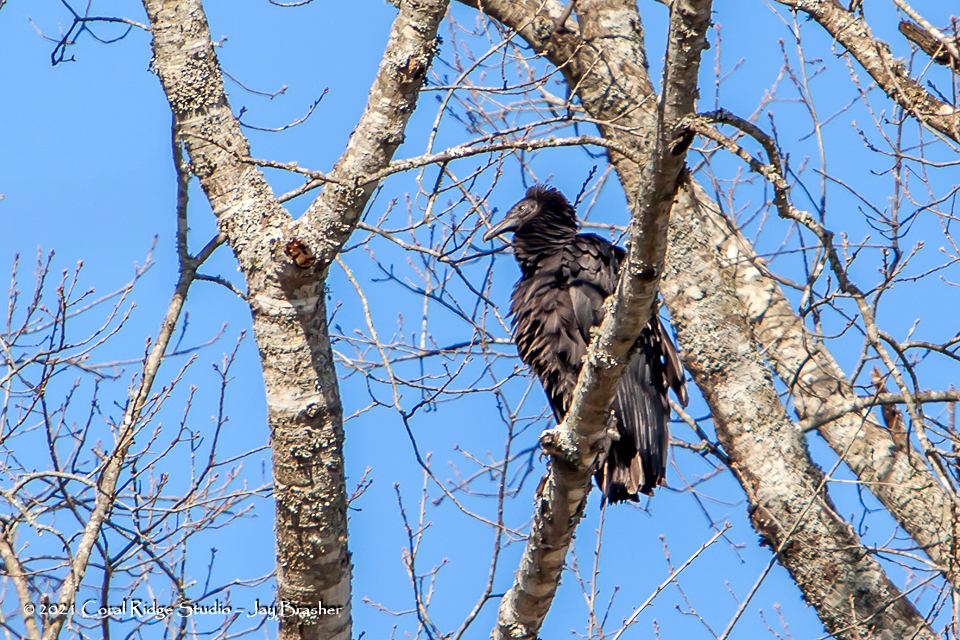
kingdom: Animalia
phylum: Chordata
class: Aves
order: Accipitriformes
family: Cathartidae
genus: Coragyps
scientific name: Coragyps atratus
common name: Black vulture
